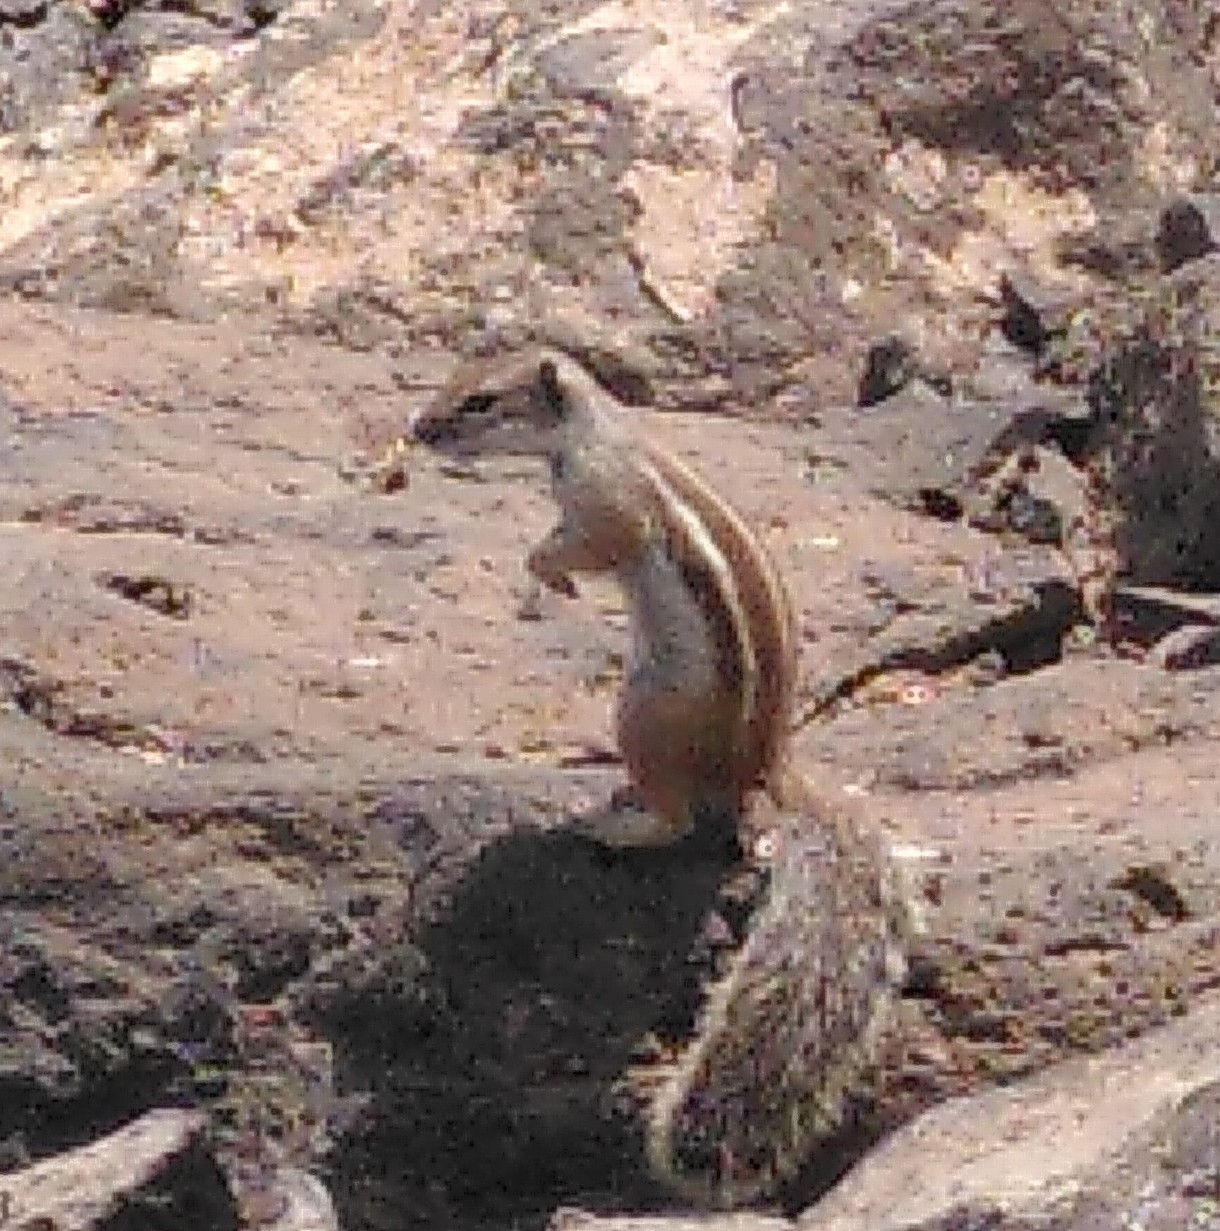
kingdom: Animalia
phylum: Chordata
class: Mammalia
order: Rodentia
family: Sciuridae
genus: Atlantoxerus
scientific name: Atlantoxerus getulus
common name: Barbary ground squirrel
